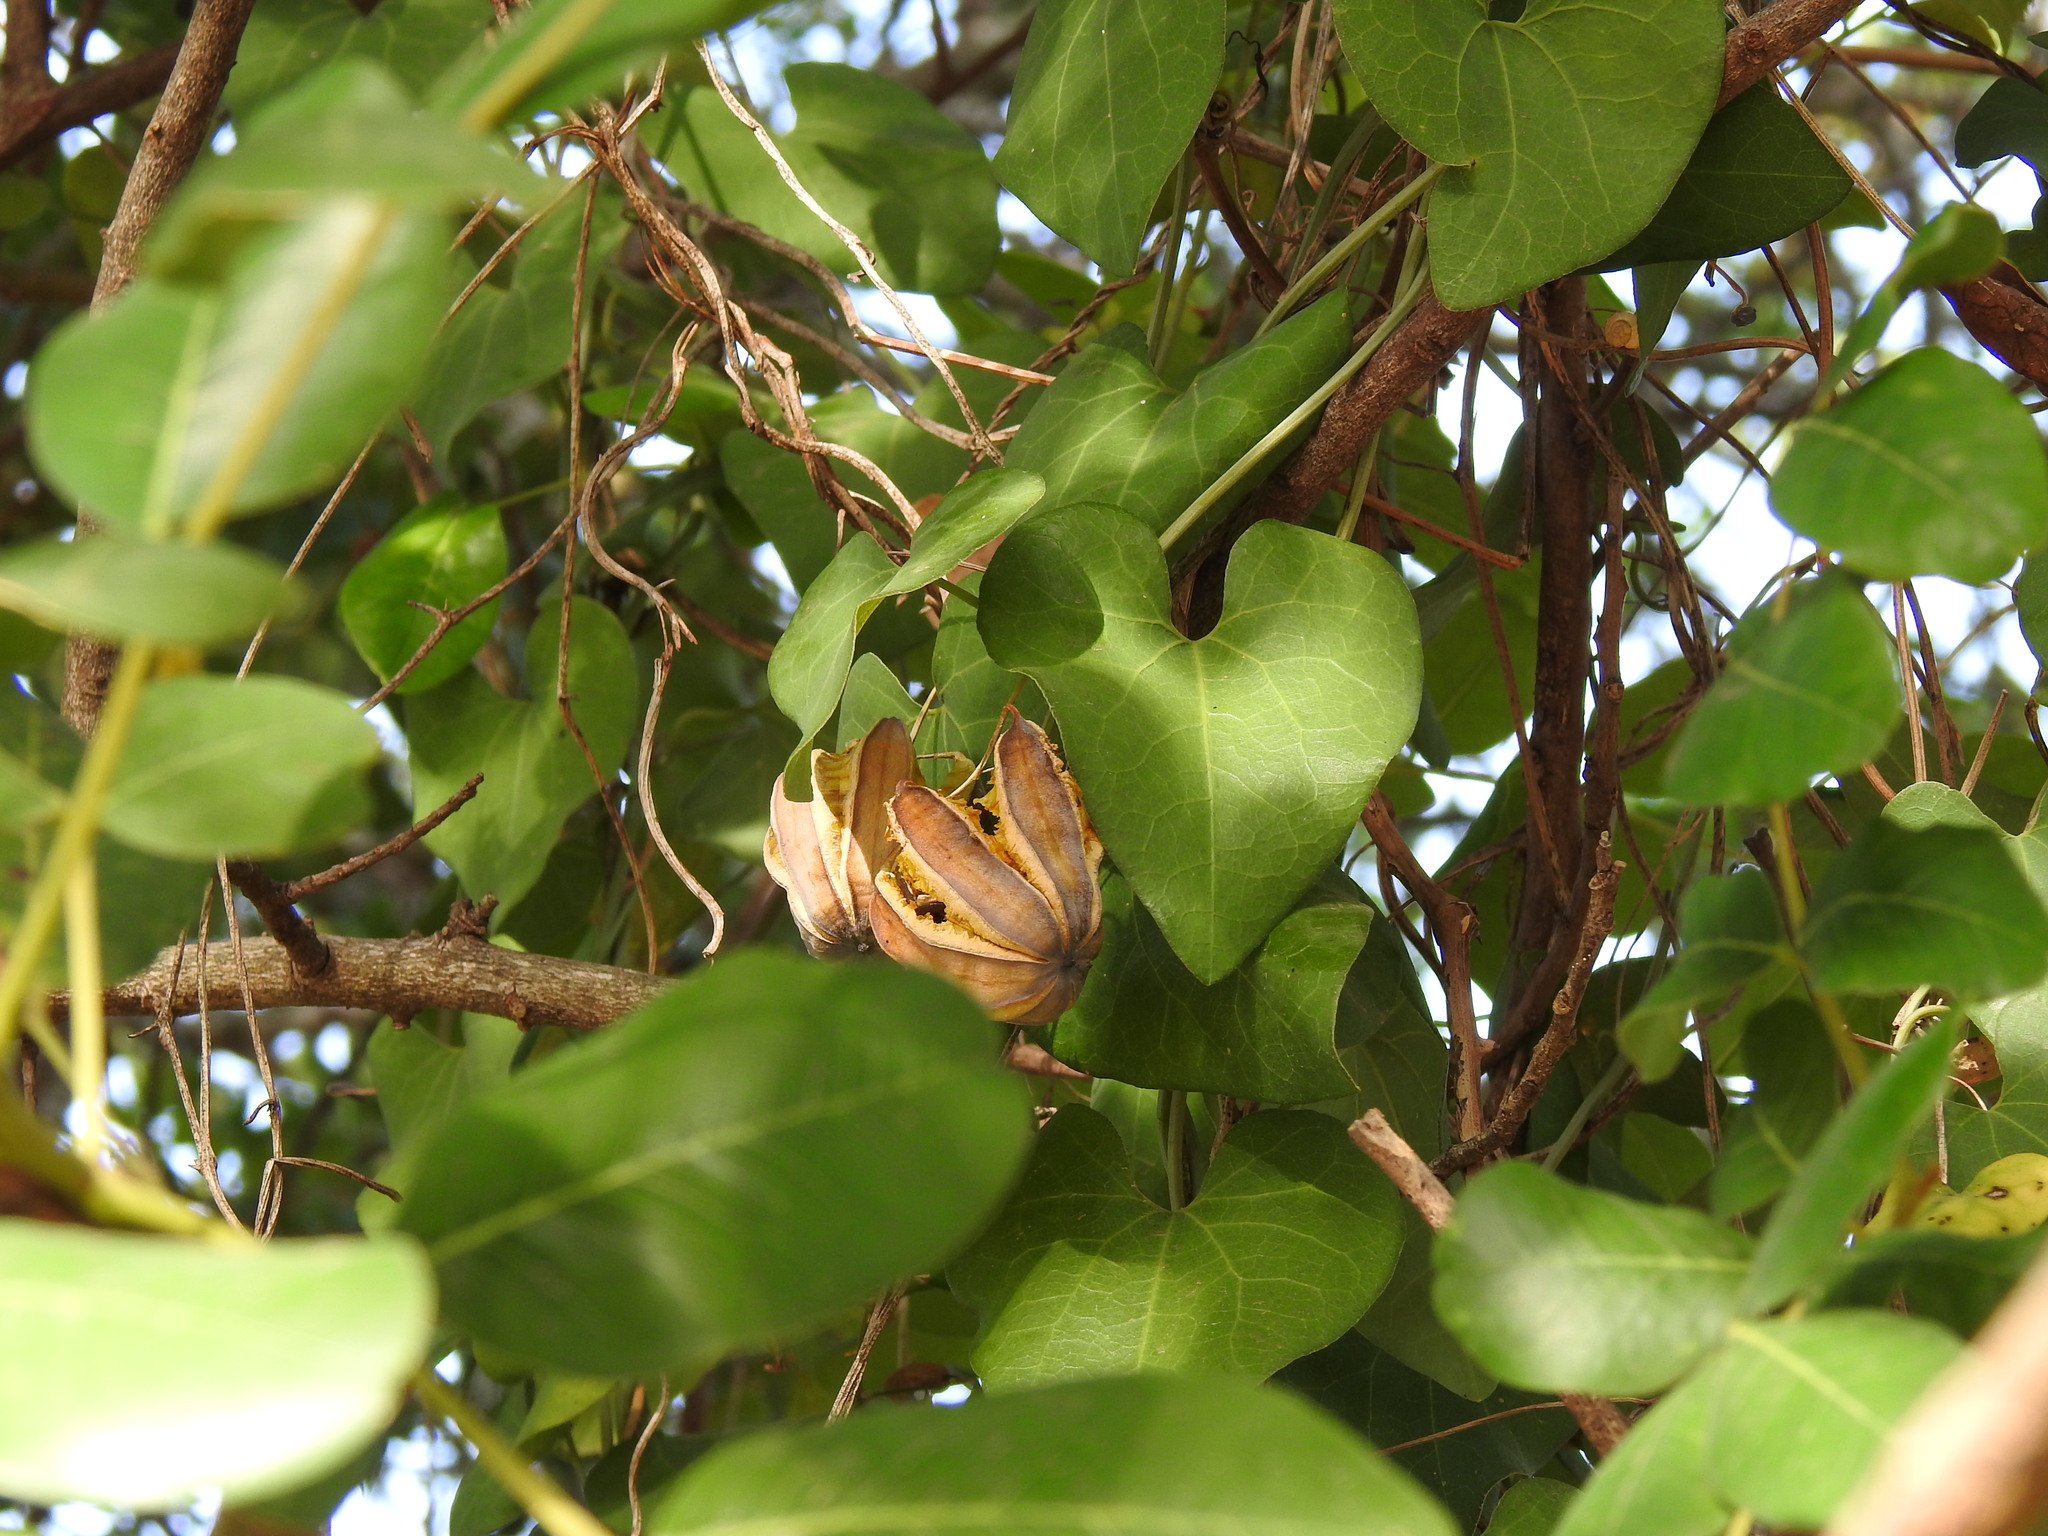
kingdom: Plantae
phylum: Tracheophyta
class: Magnoliopsida
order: Piperales
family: Aristolochiaceae
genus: Aristolochia
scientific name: Aristolochia baetica
